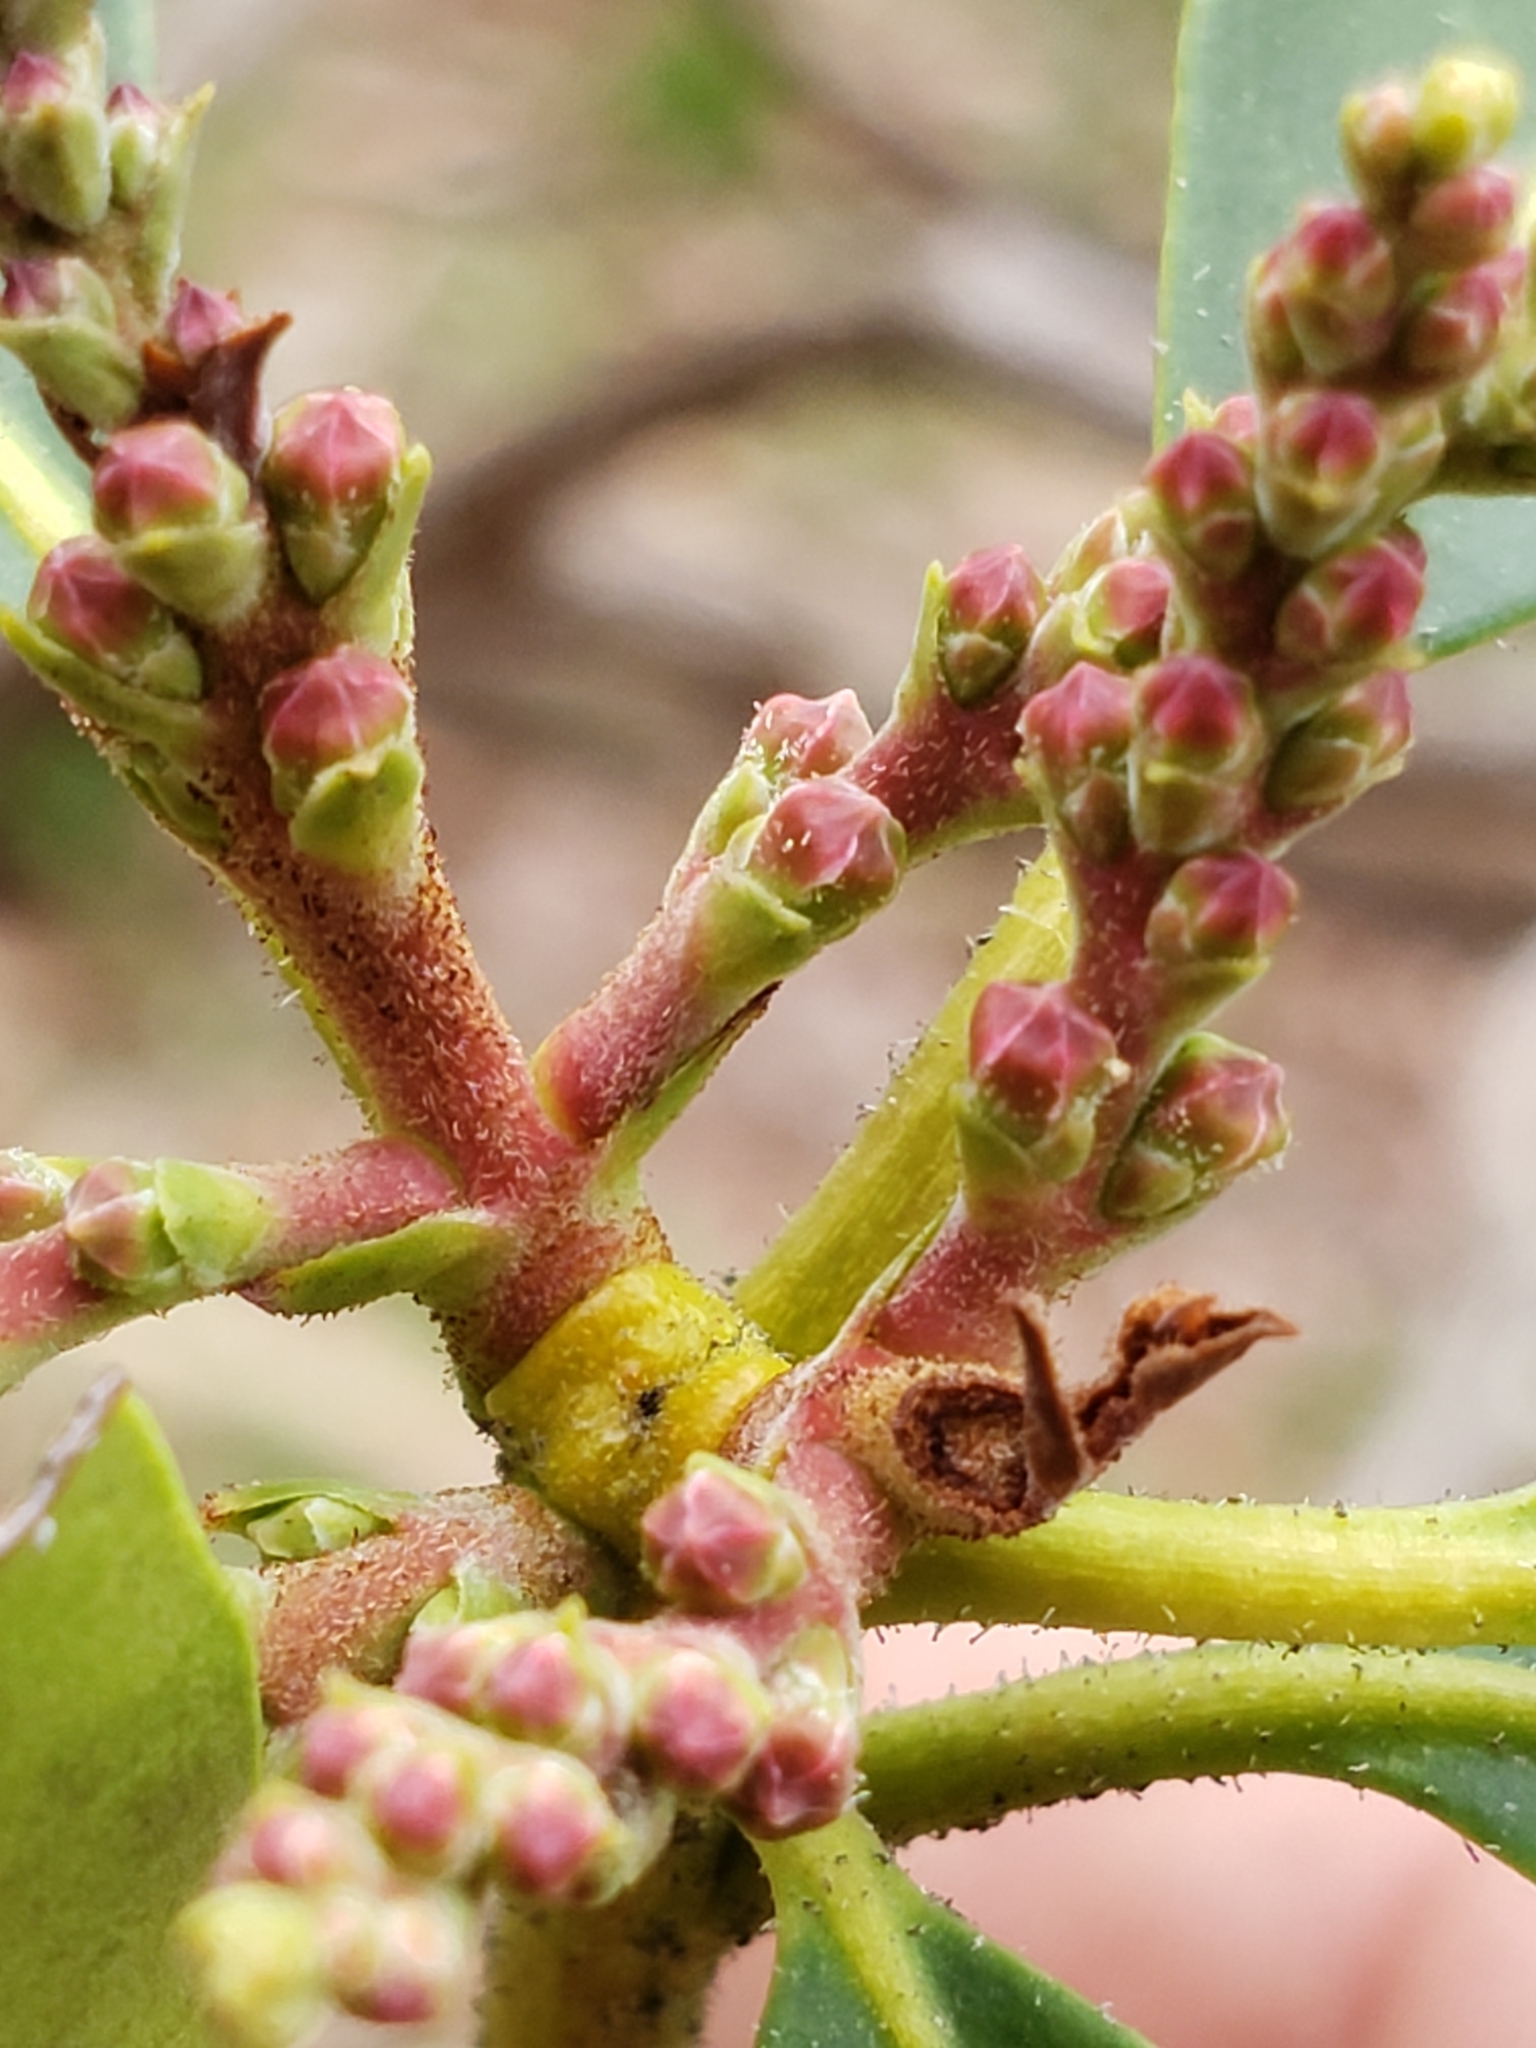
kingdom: Plantae
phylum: Tracheophyta
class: Magnoliopsida
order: Ericales
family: Ericaceae
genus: Kalmia
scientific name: Kalmia latifolia
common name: Mountain-laurel
